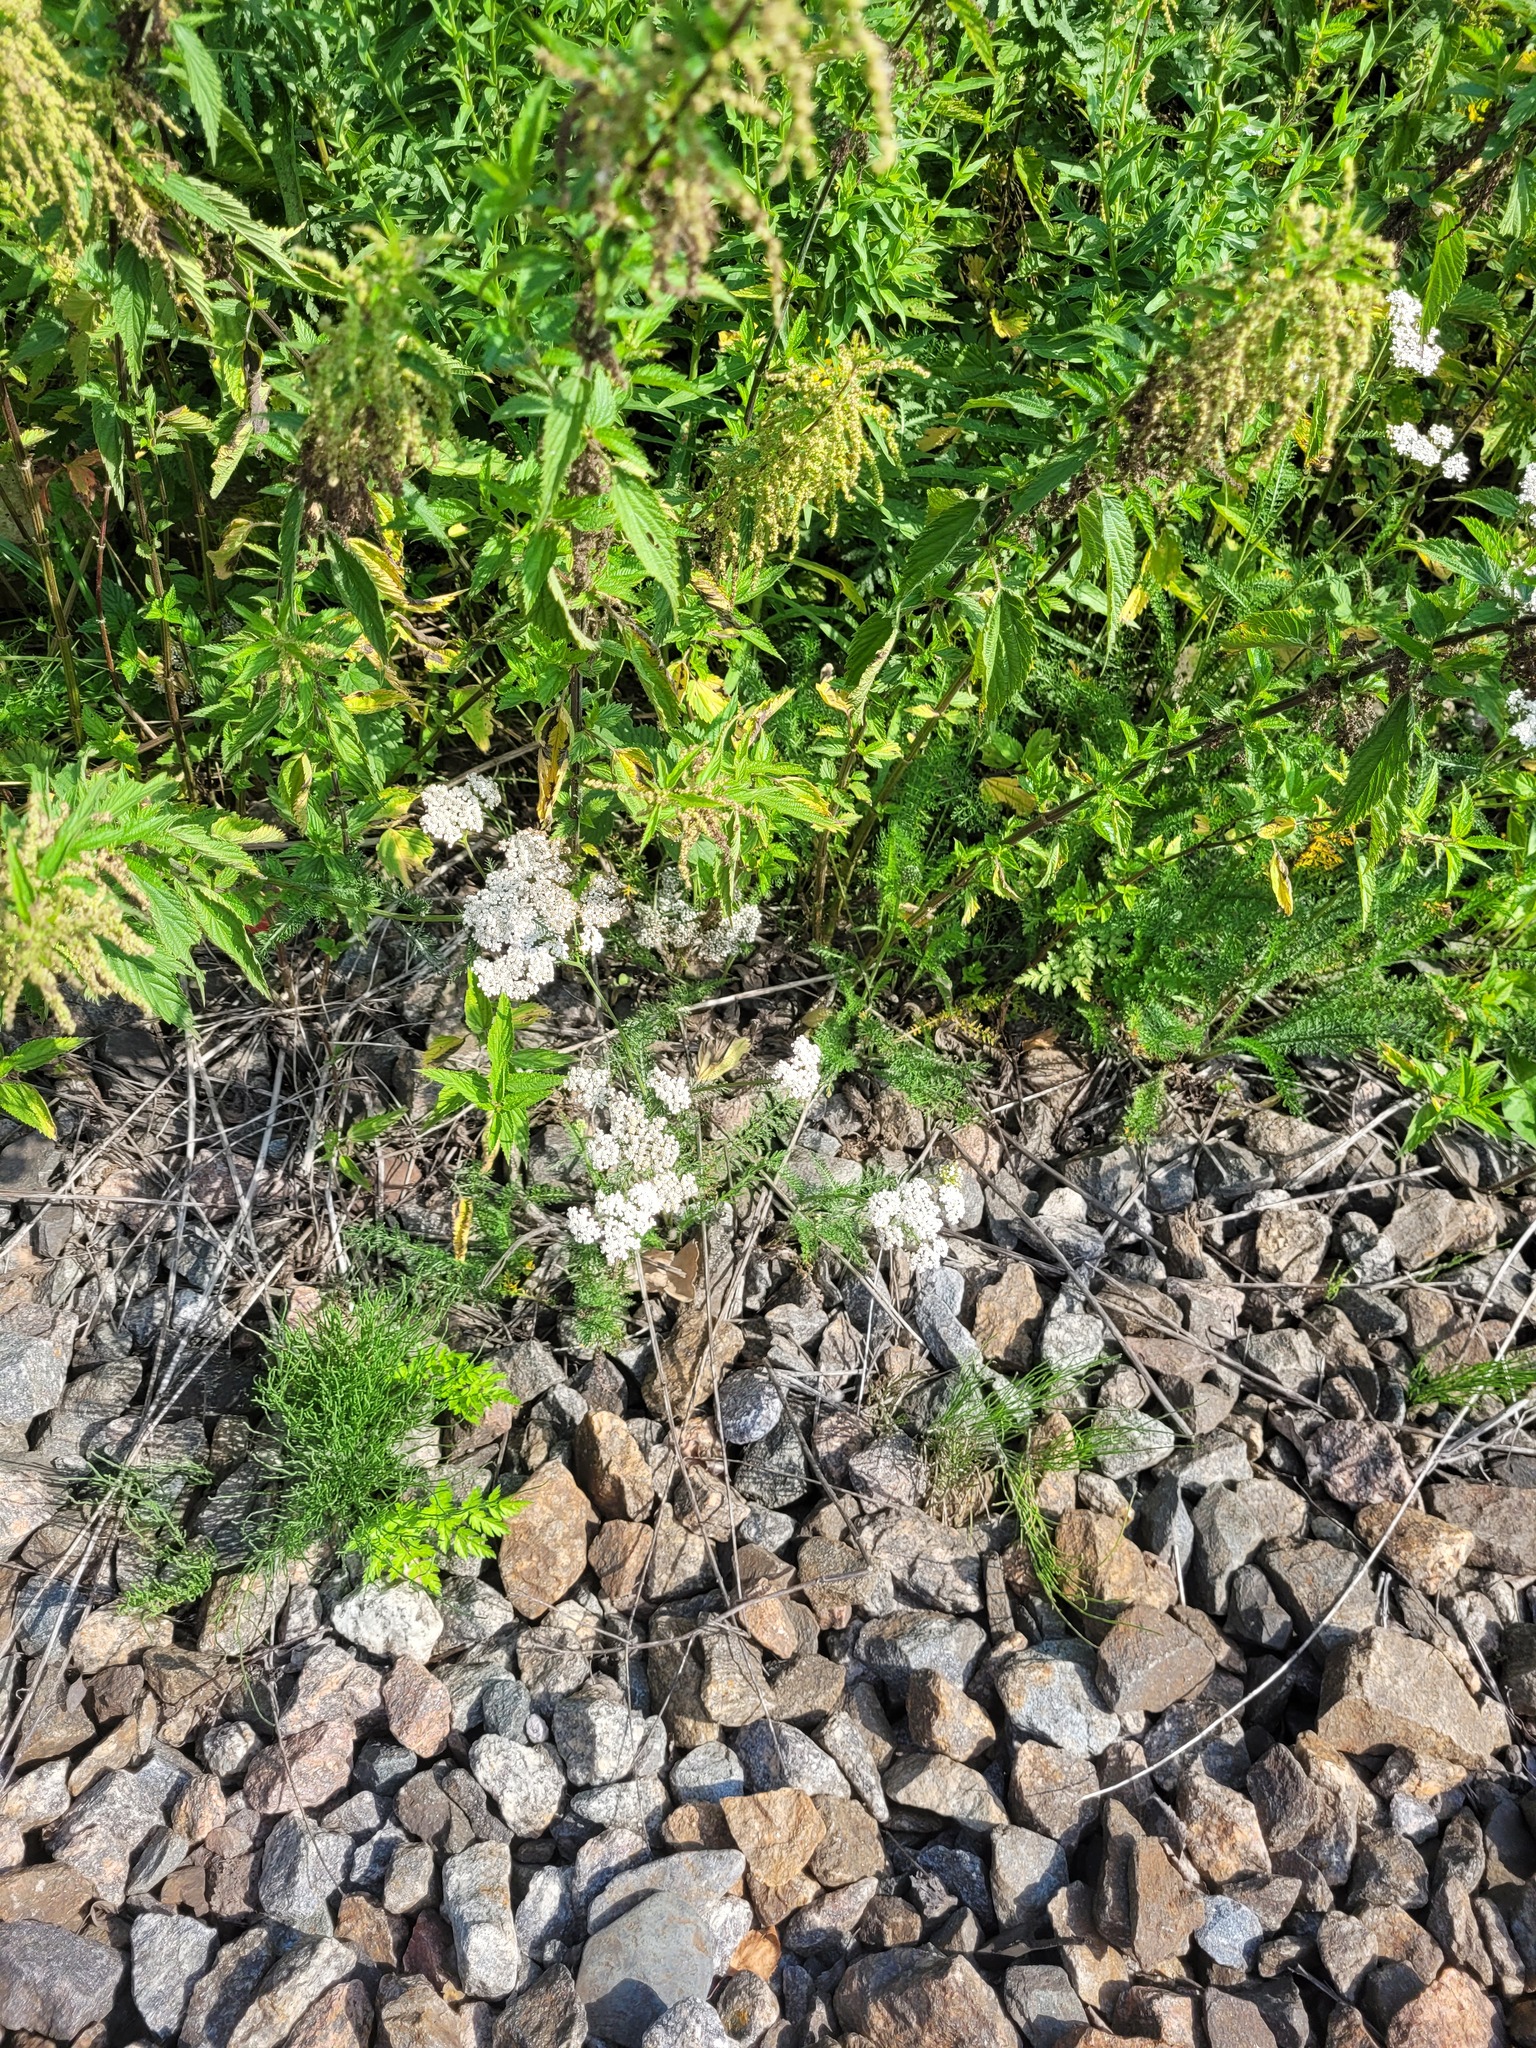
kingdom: Plantae
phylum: Tracheophyta
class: Magnoliopsida
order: Asterales
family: Asteraceae
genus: Achillea
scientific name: Achillea millefolium
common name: Yarrow
